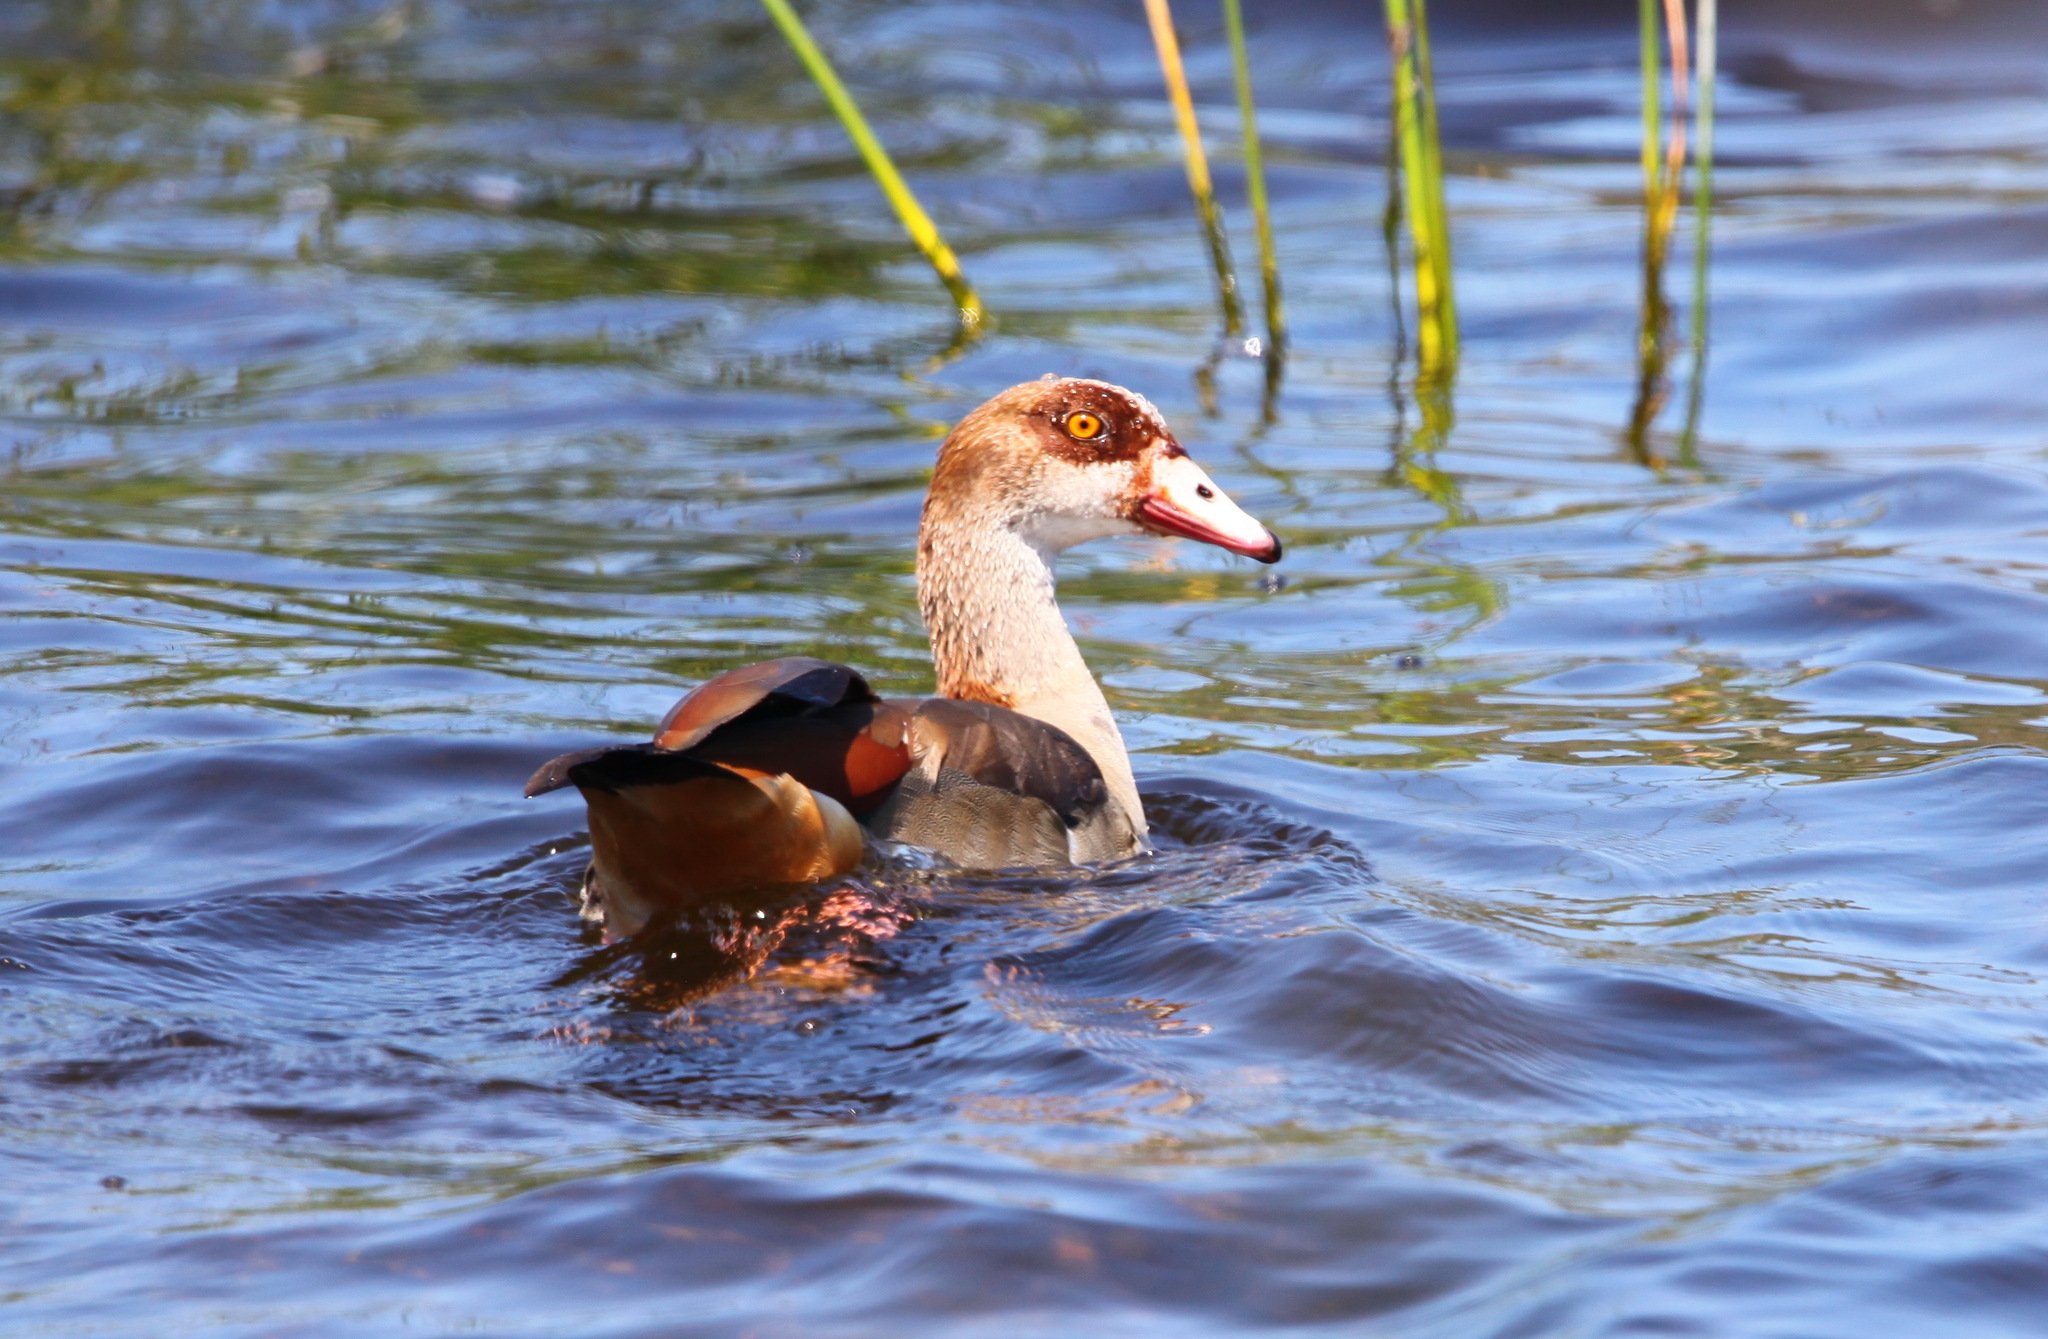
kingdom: Animalia
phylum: Chordata
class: Aves
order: Anseriformes
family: Anatidae
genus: Alopochen
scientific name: Alopochen aegyptiaca
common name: Egyptian goose
